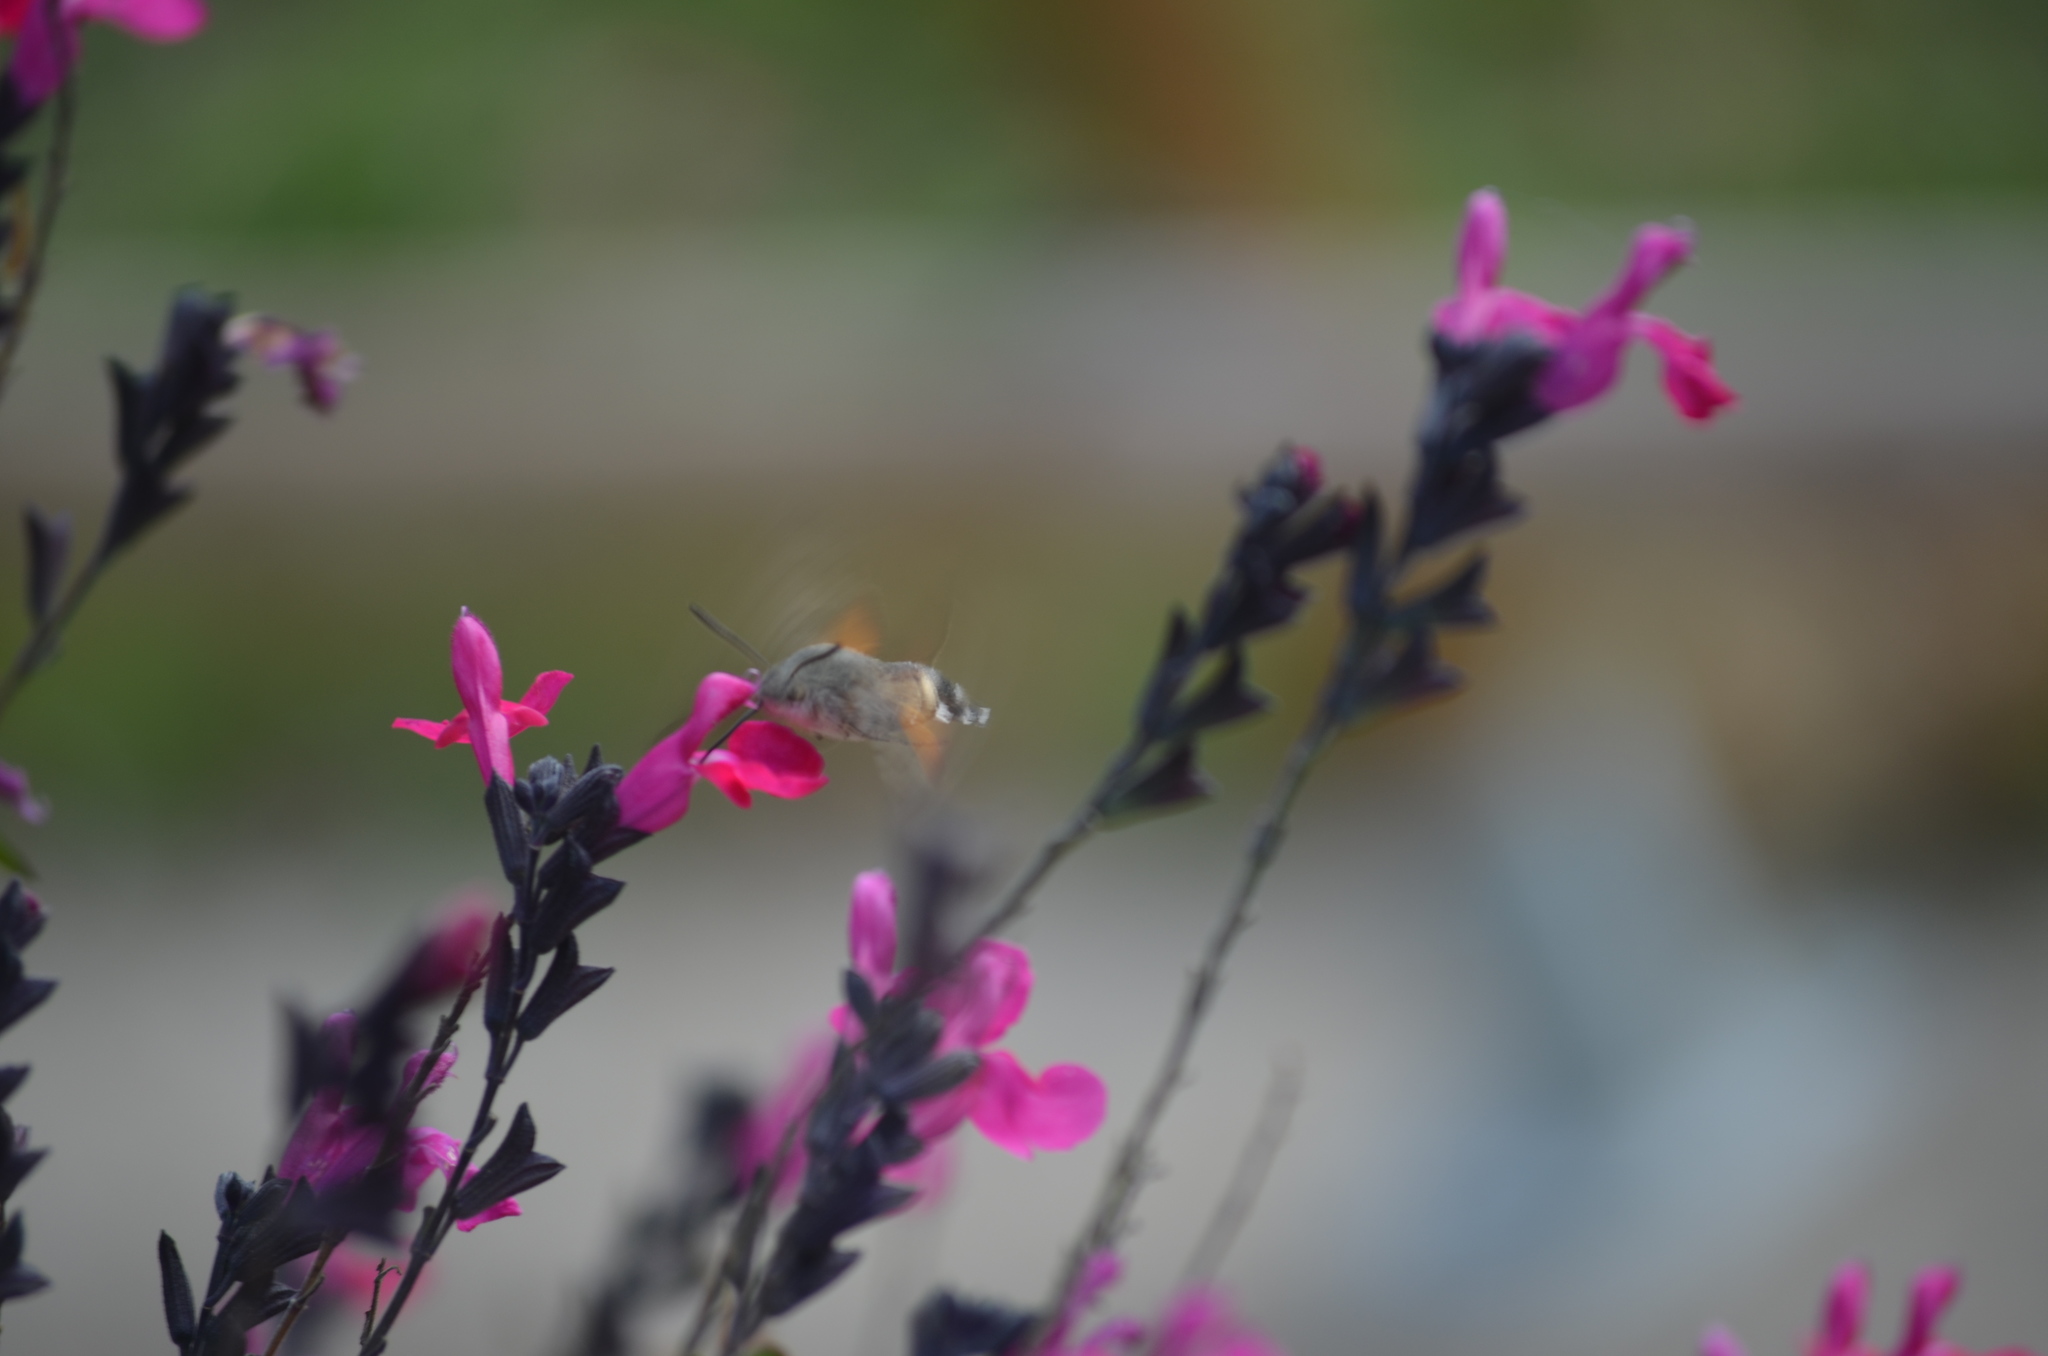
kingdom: Animalia
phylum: Arthropoda
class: Insecta
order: Lepidoptera
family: Sphingidae
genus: Macroglossum
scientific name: Macroglossum stellatarum
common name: Humming-bird hawk-moth
